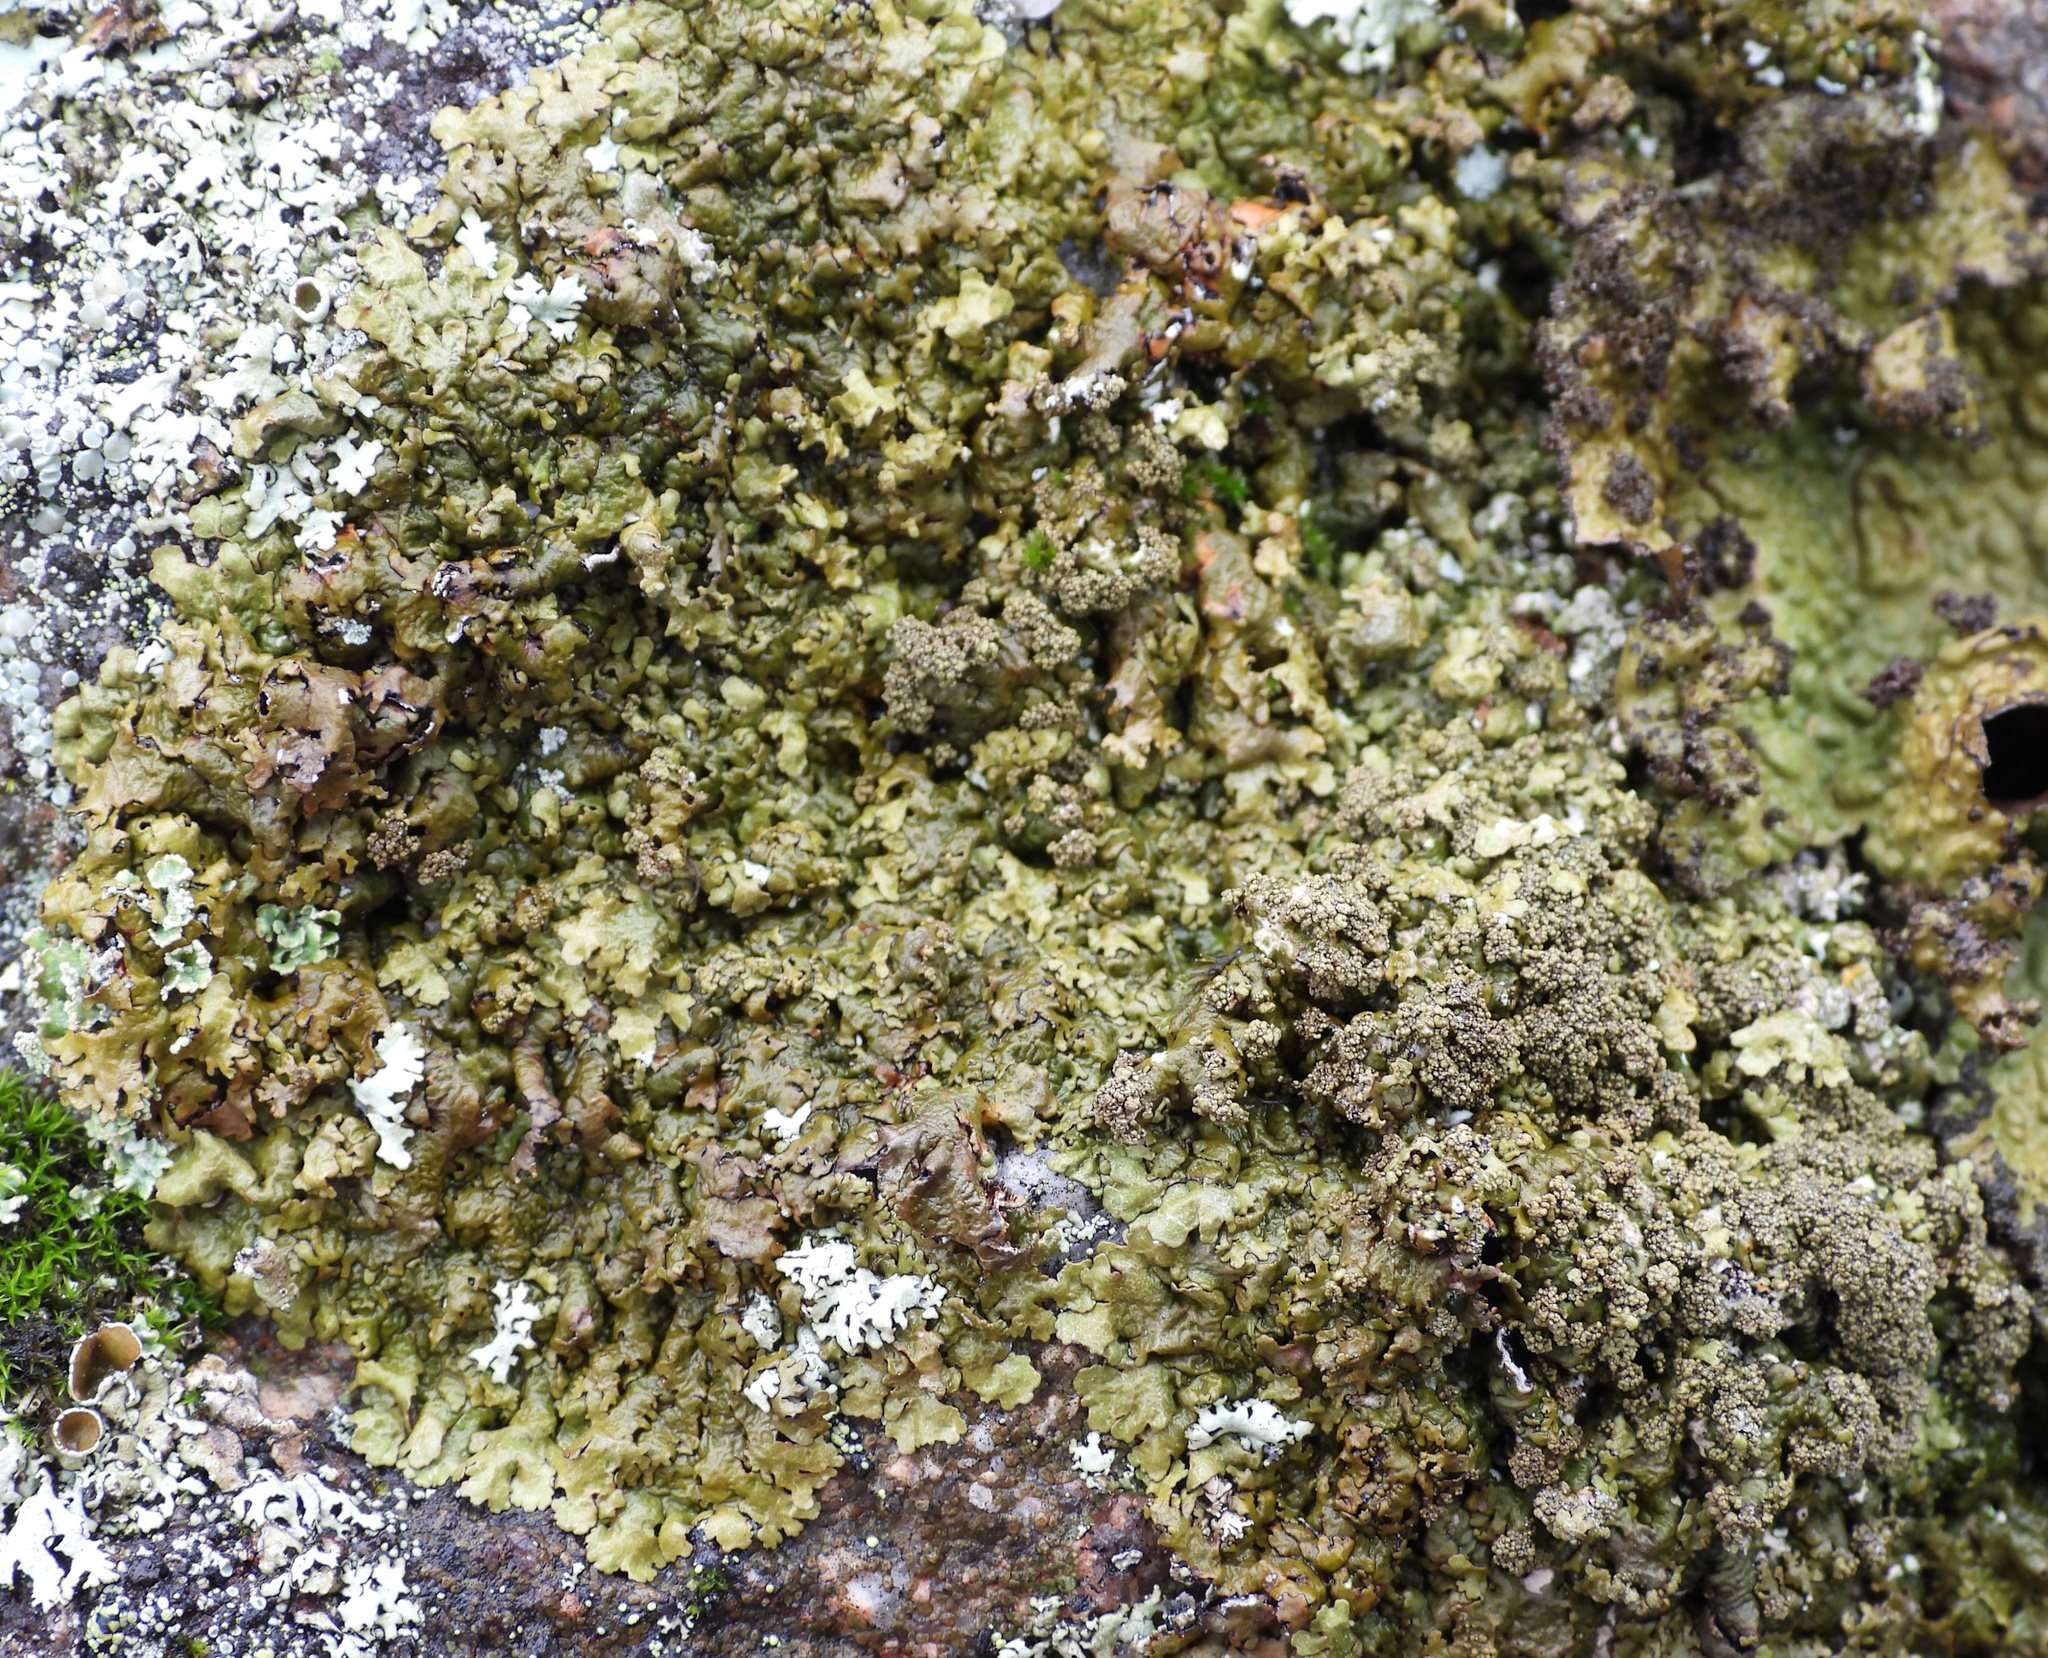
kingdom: Fungi
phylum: Ascomycota
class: Lecanoromycetes
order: Lecanorales
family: Parmeliaceae
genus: Xanthoparmelia
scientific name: Xanthoparmelia loxodes
